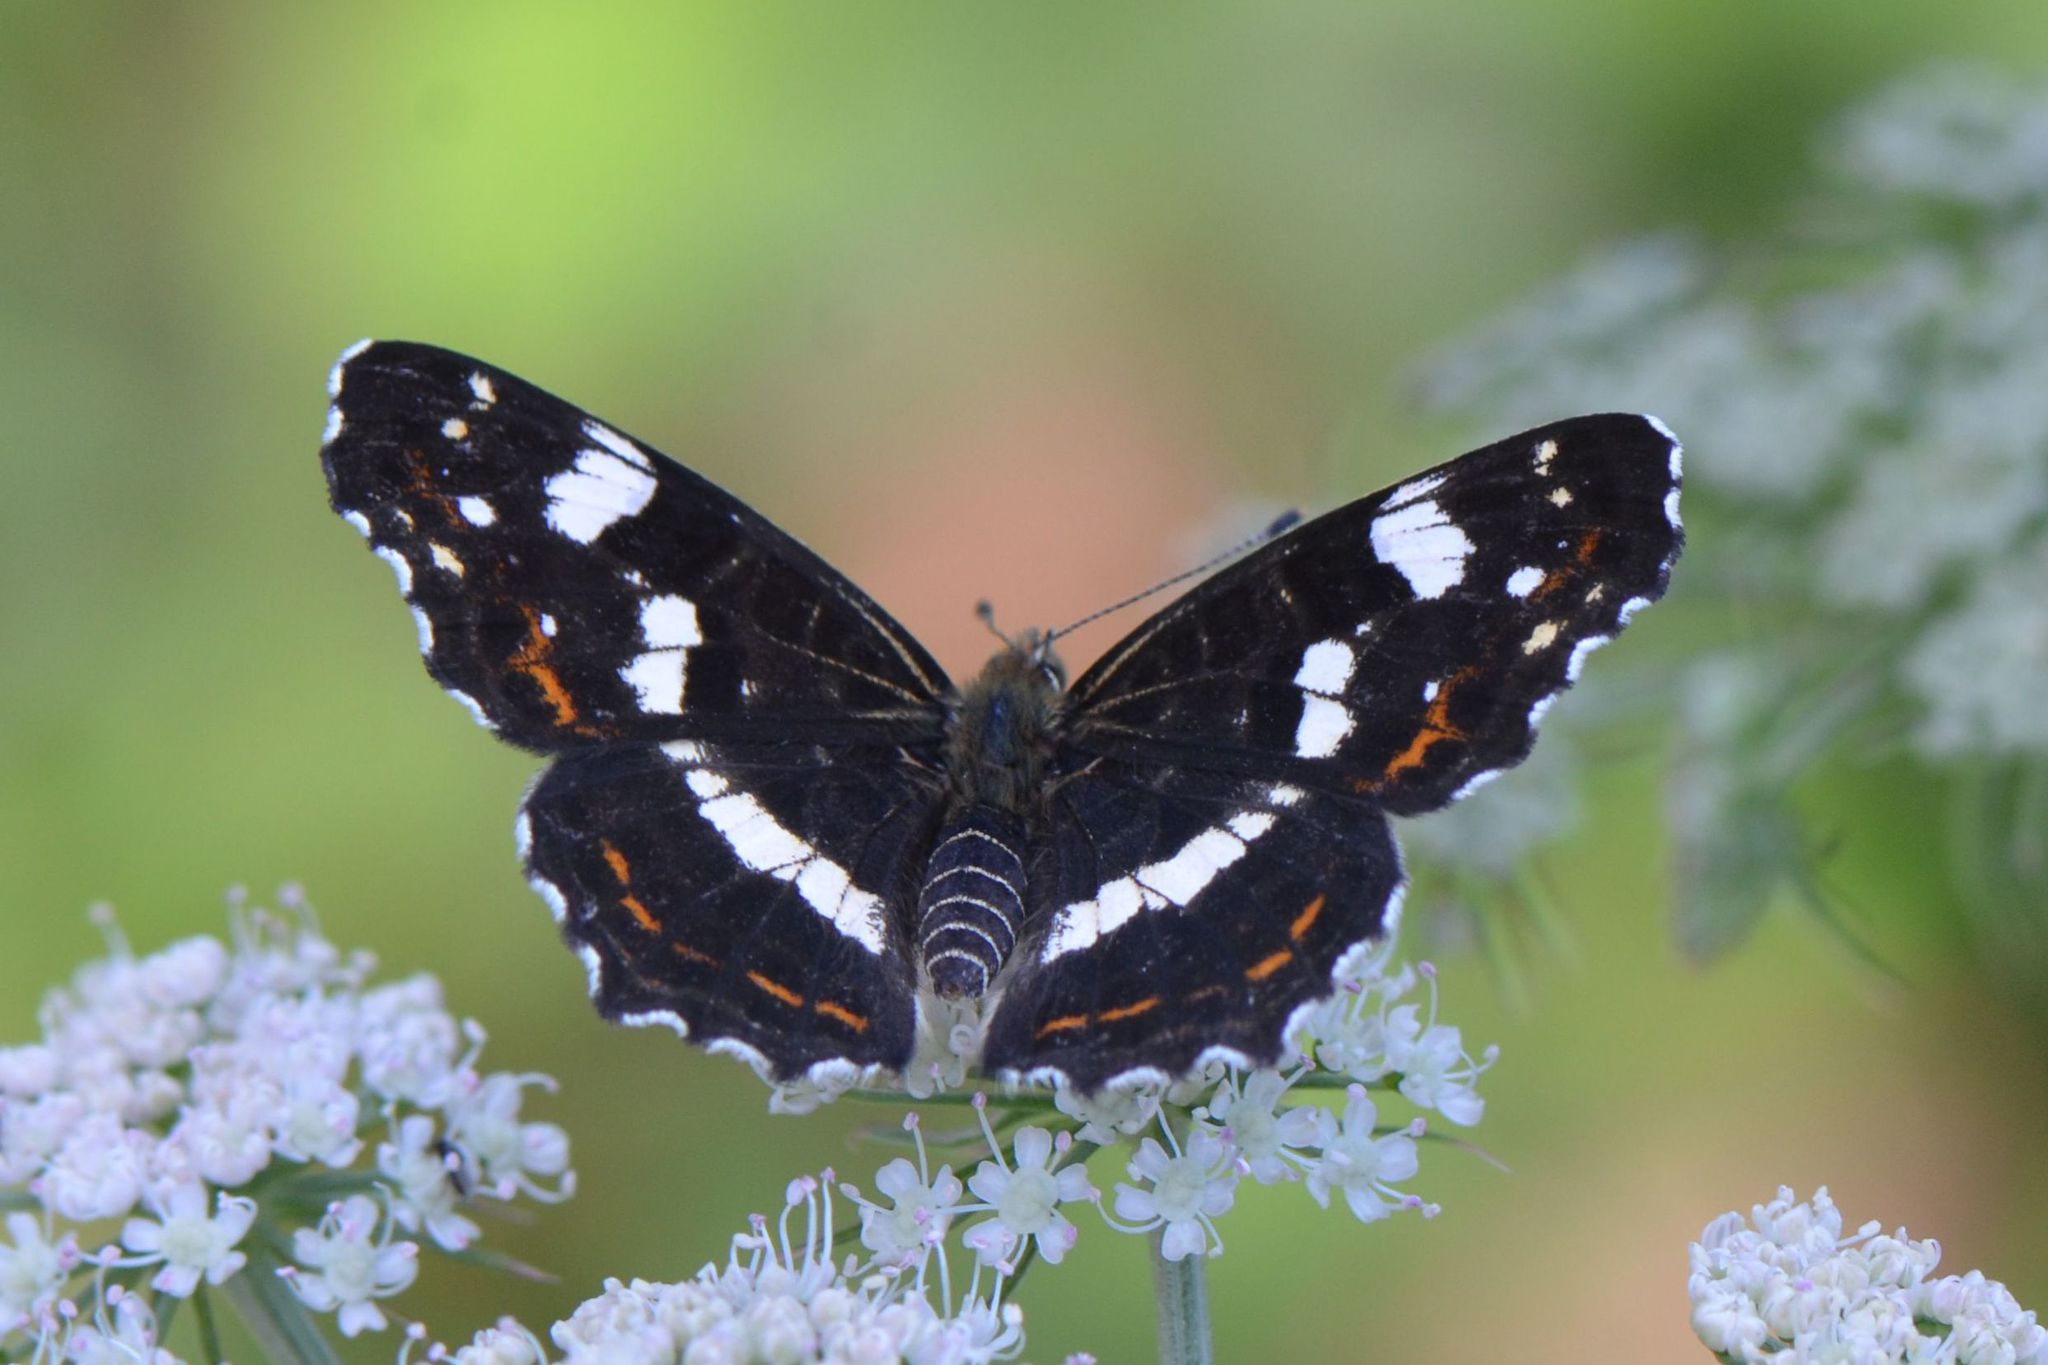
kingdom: Animalia
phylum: Arthropoda
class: Insecta
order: Lepidoptera
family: Nymphalidae
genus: Araschnia
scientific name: Araschnia levana
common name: Map butterfly
